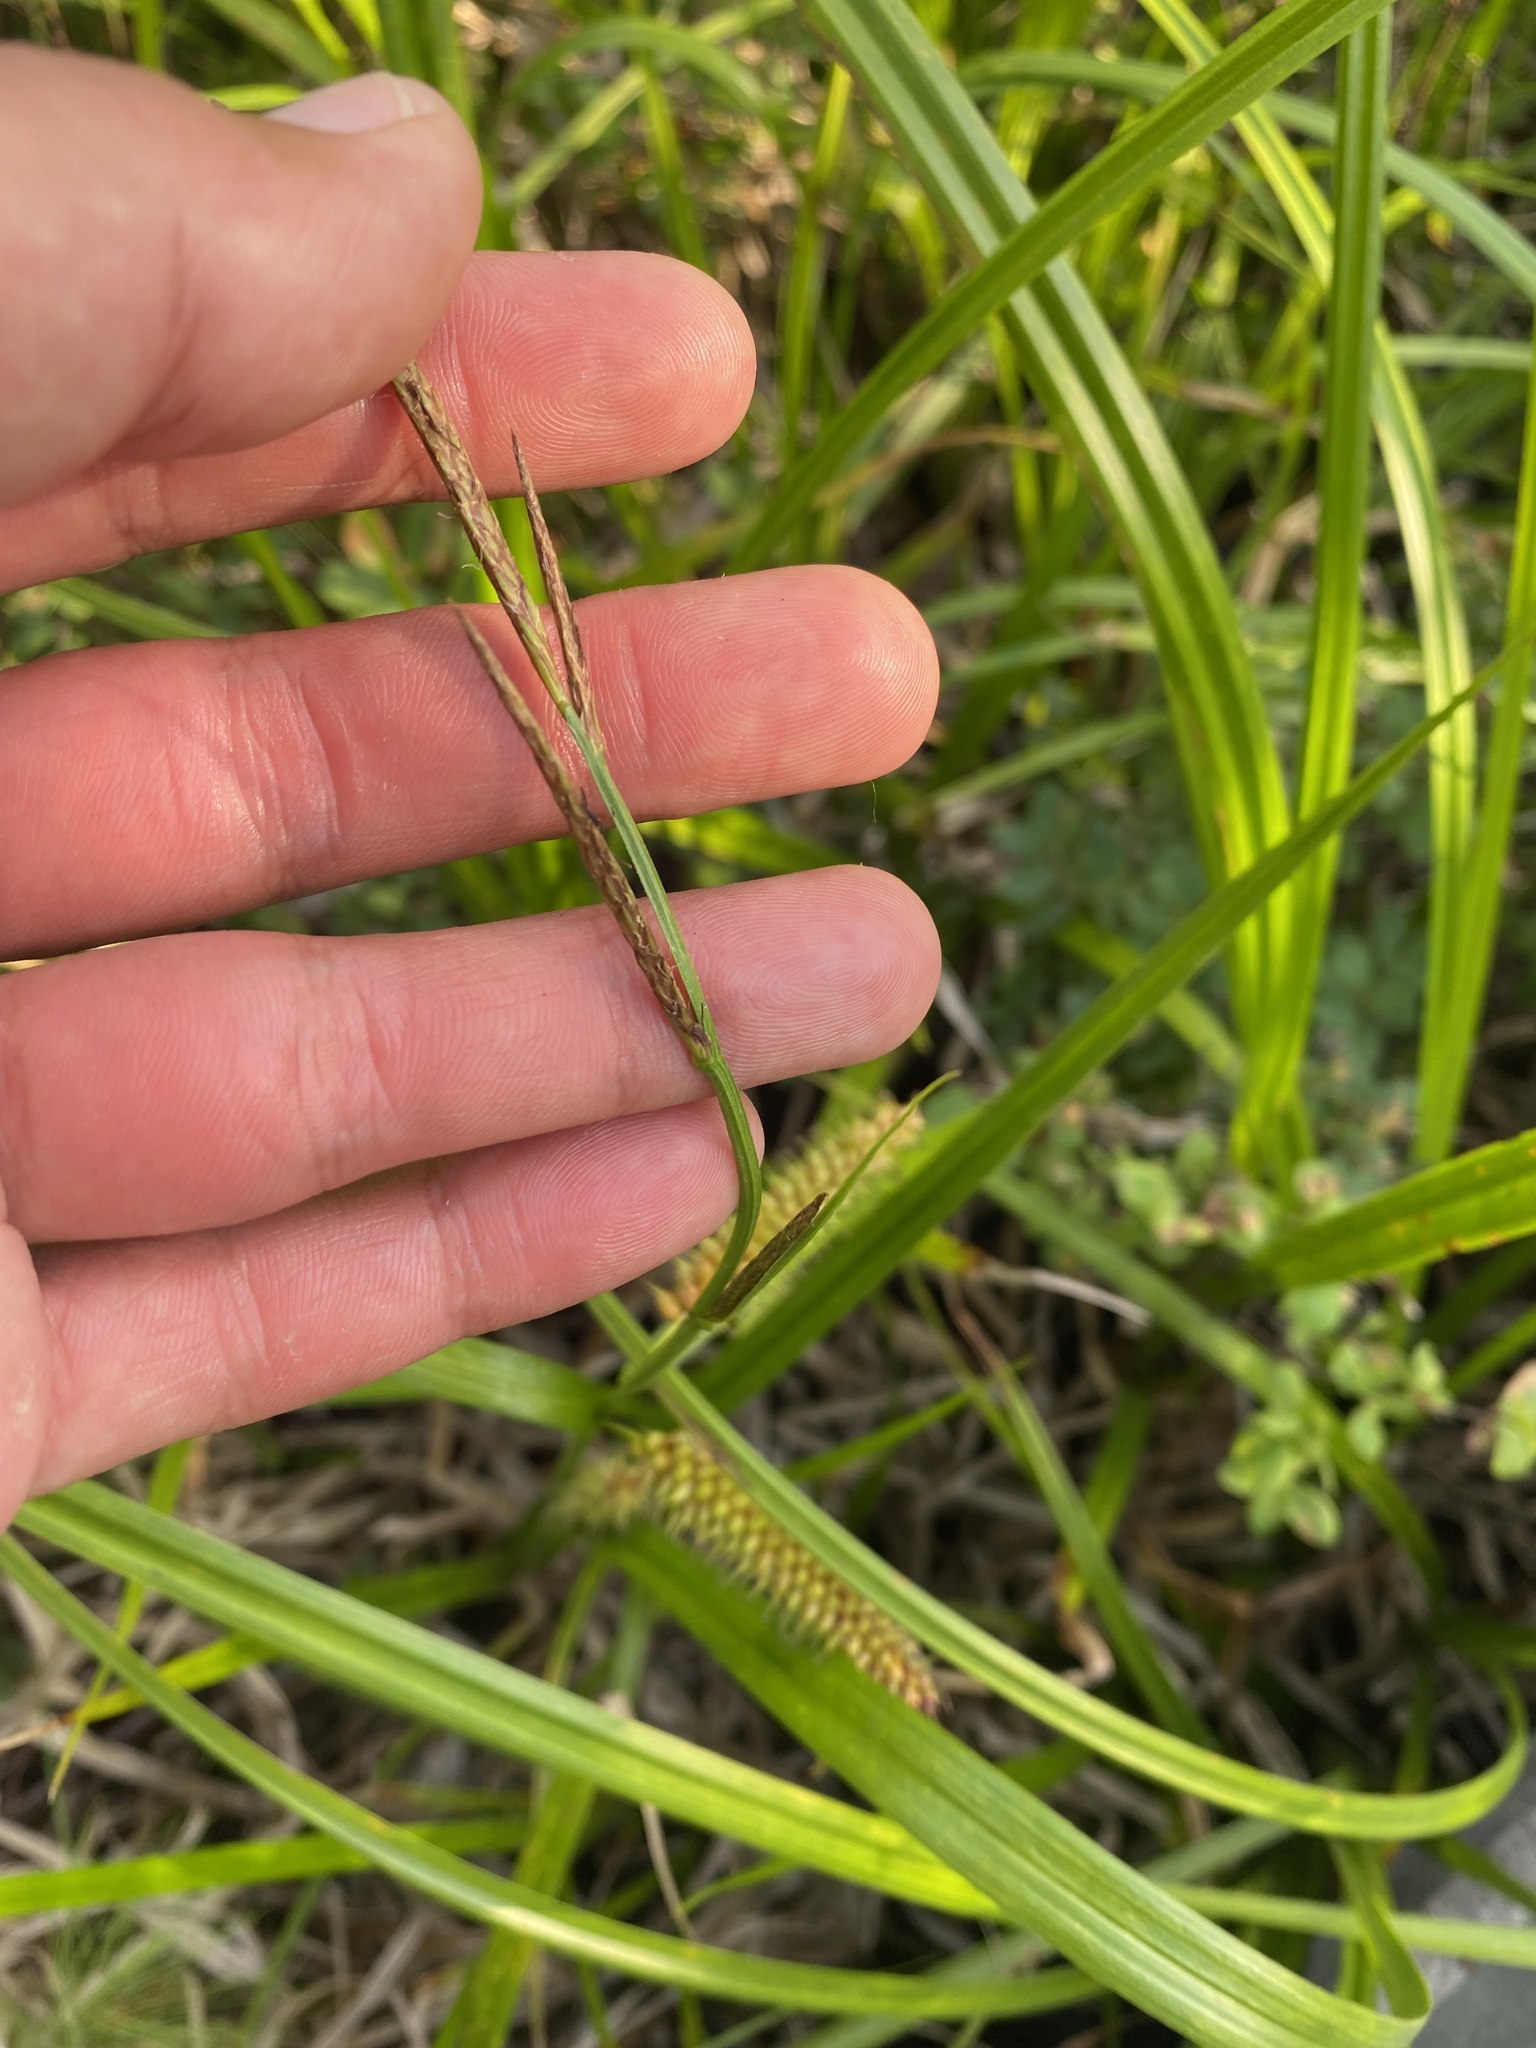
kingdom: Plantae
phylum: Tracheophyta
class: Liliopsida
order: Poales
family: Cyperaceae
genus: Carex
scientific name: Carex utriculata
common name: Beaked sedge
